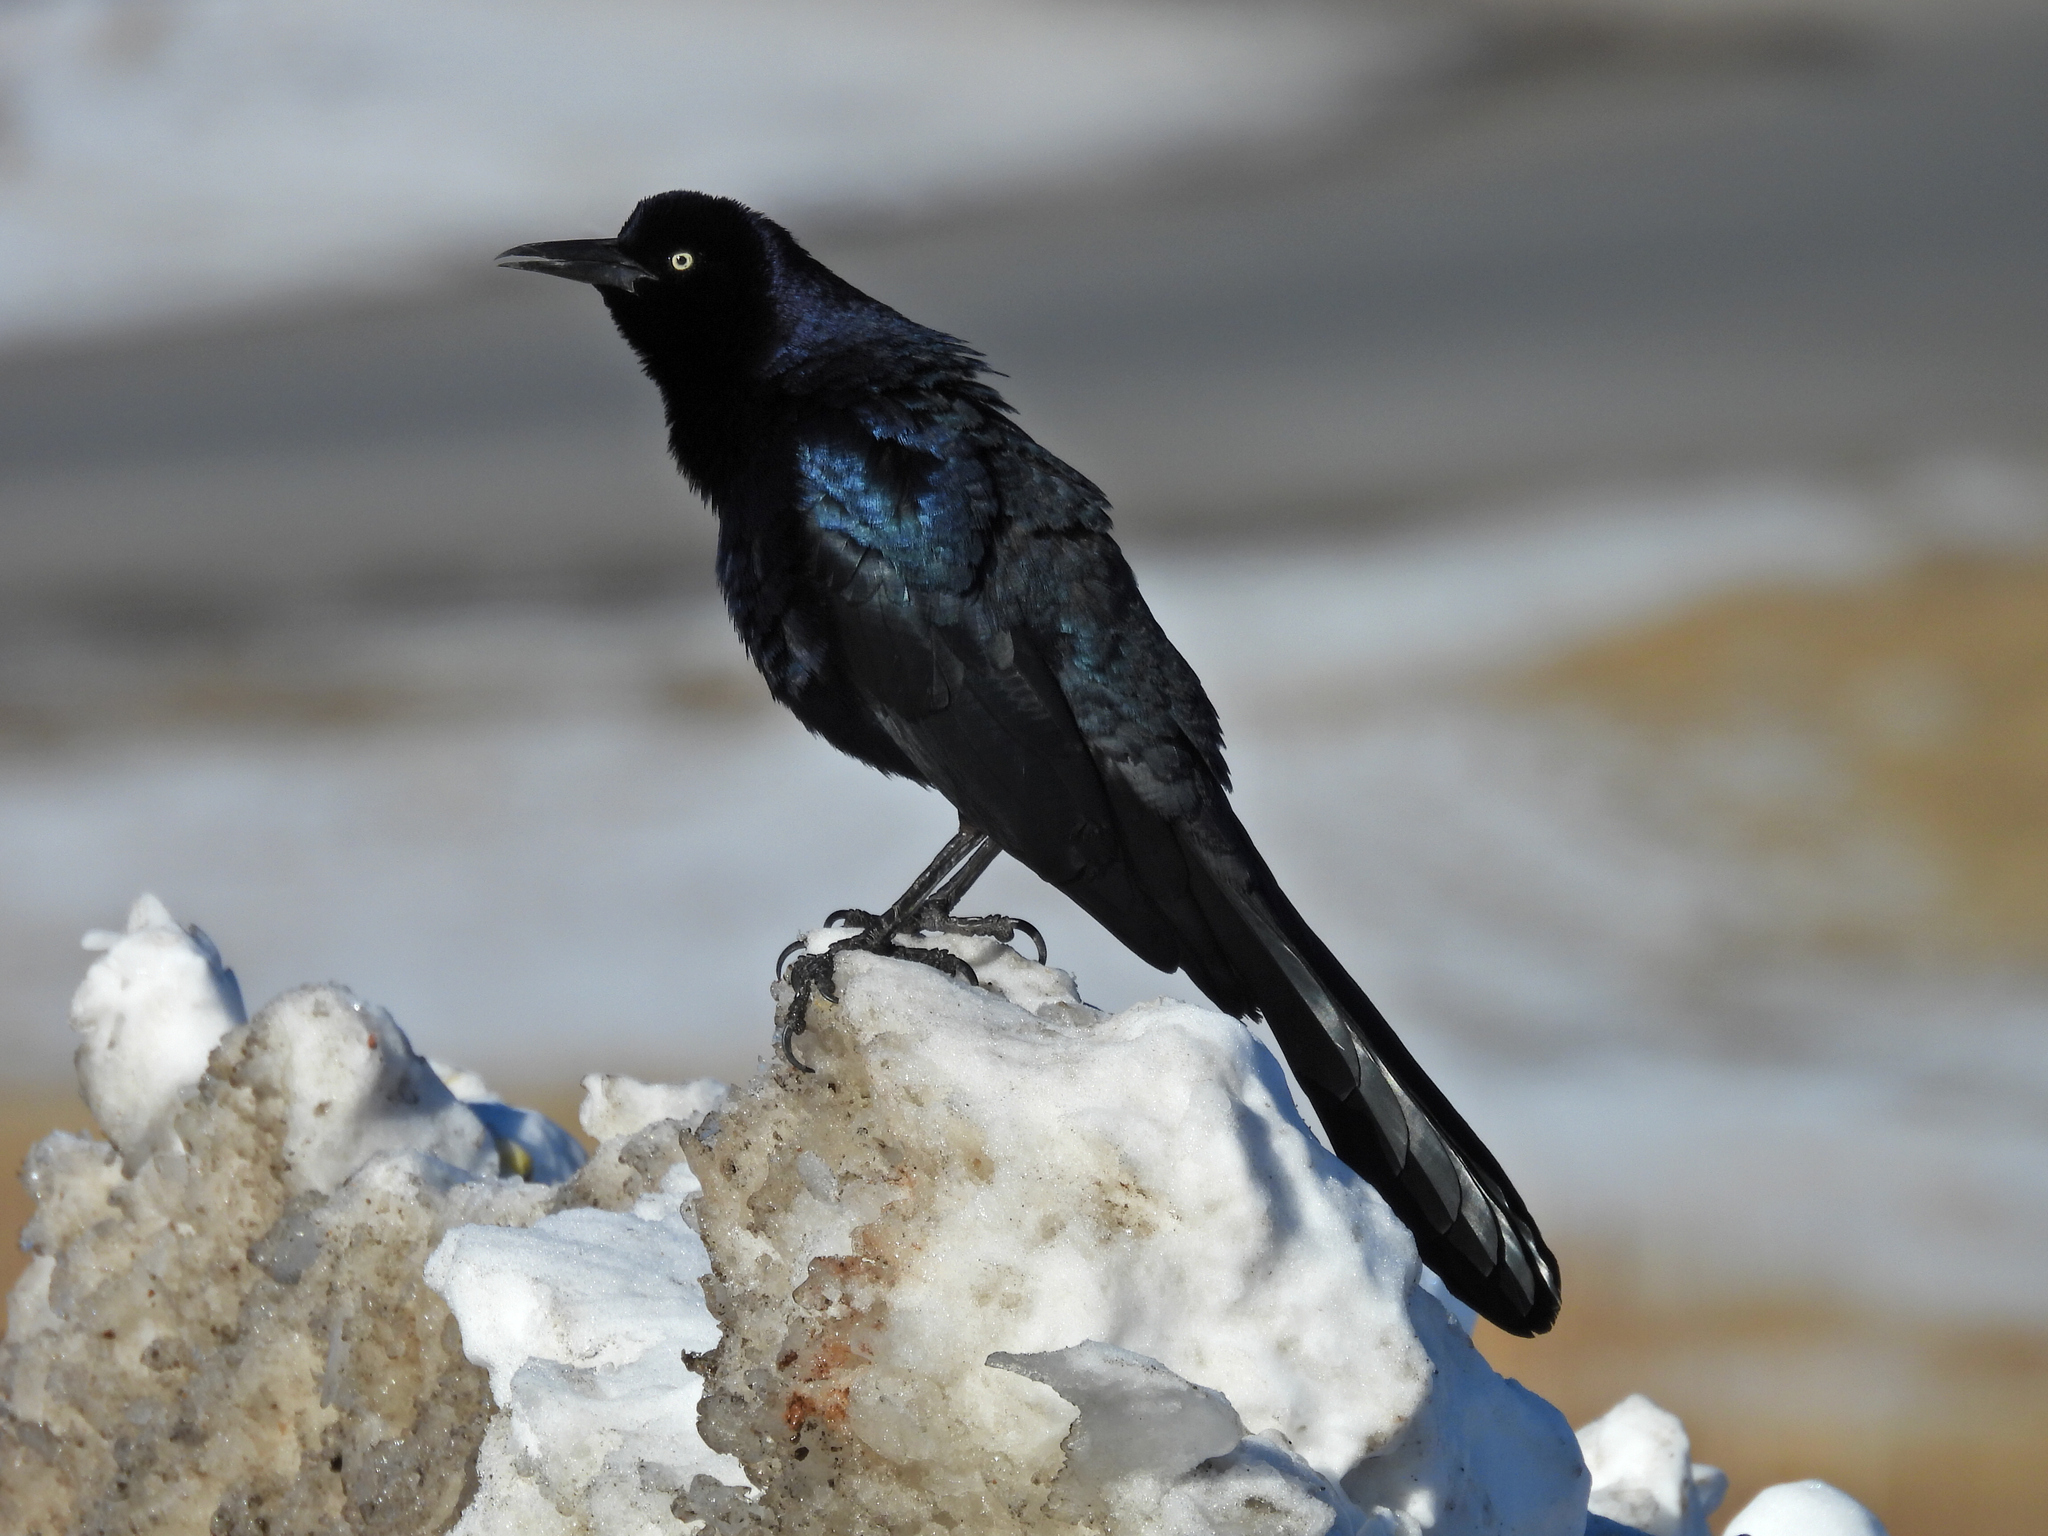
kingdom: Animalia
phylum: Chordata
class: Aves
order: Passeriformes
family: Icteridae
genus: Quiscalus
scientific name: Quiscalus mexicanus
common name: Great-tailed grackle
